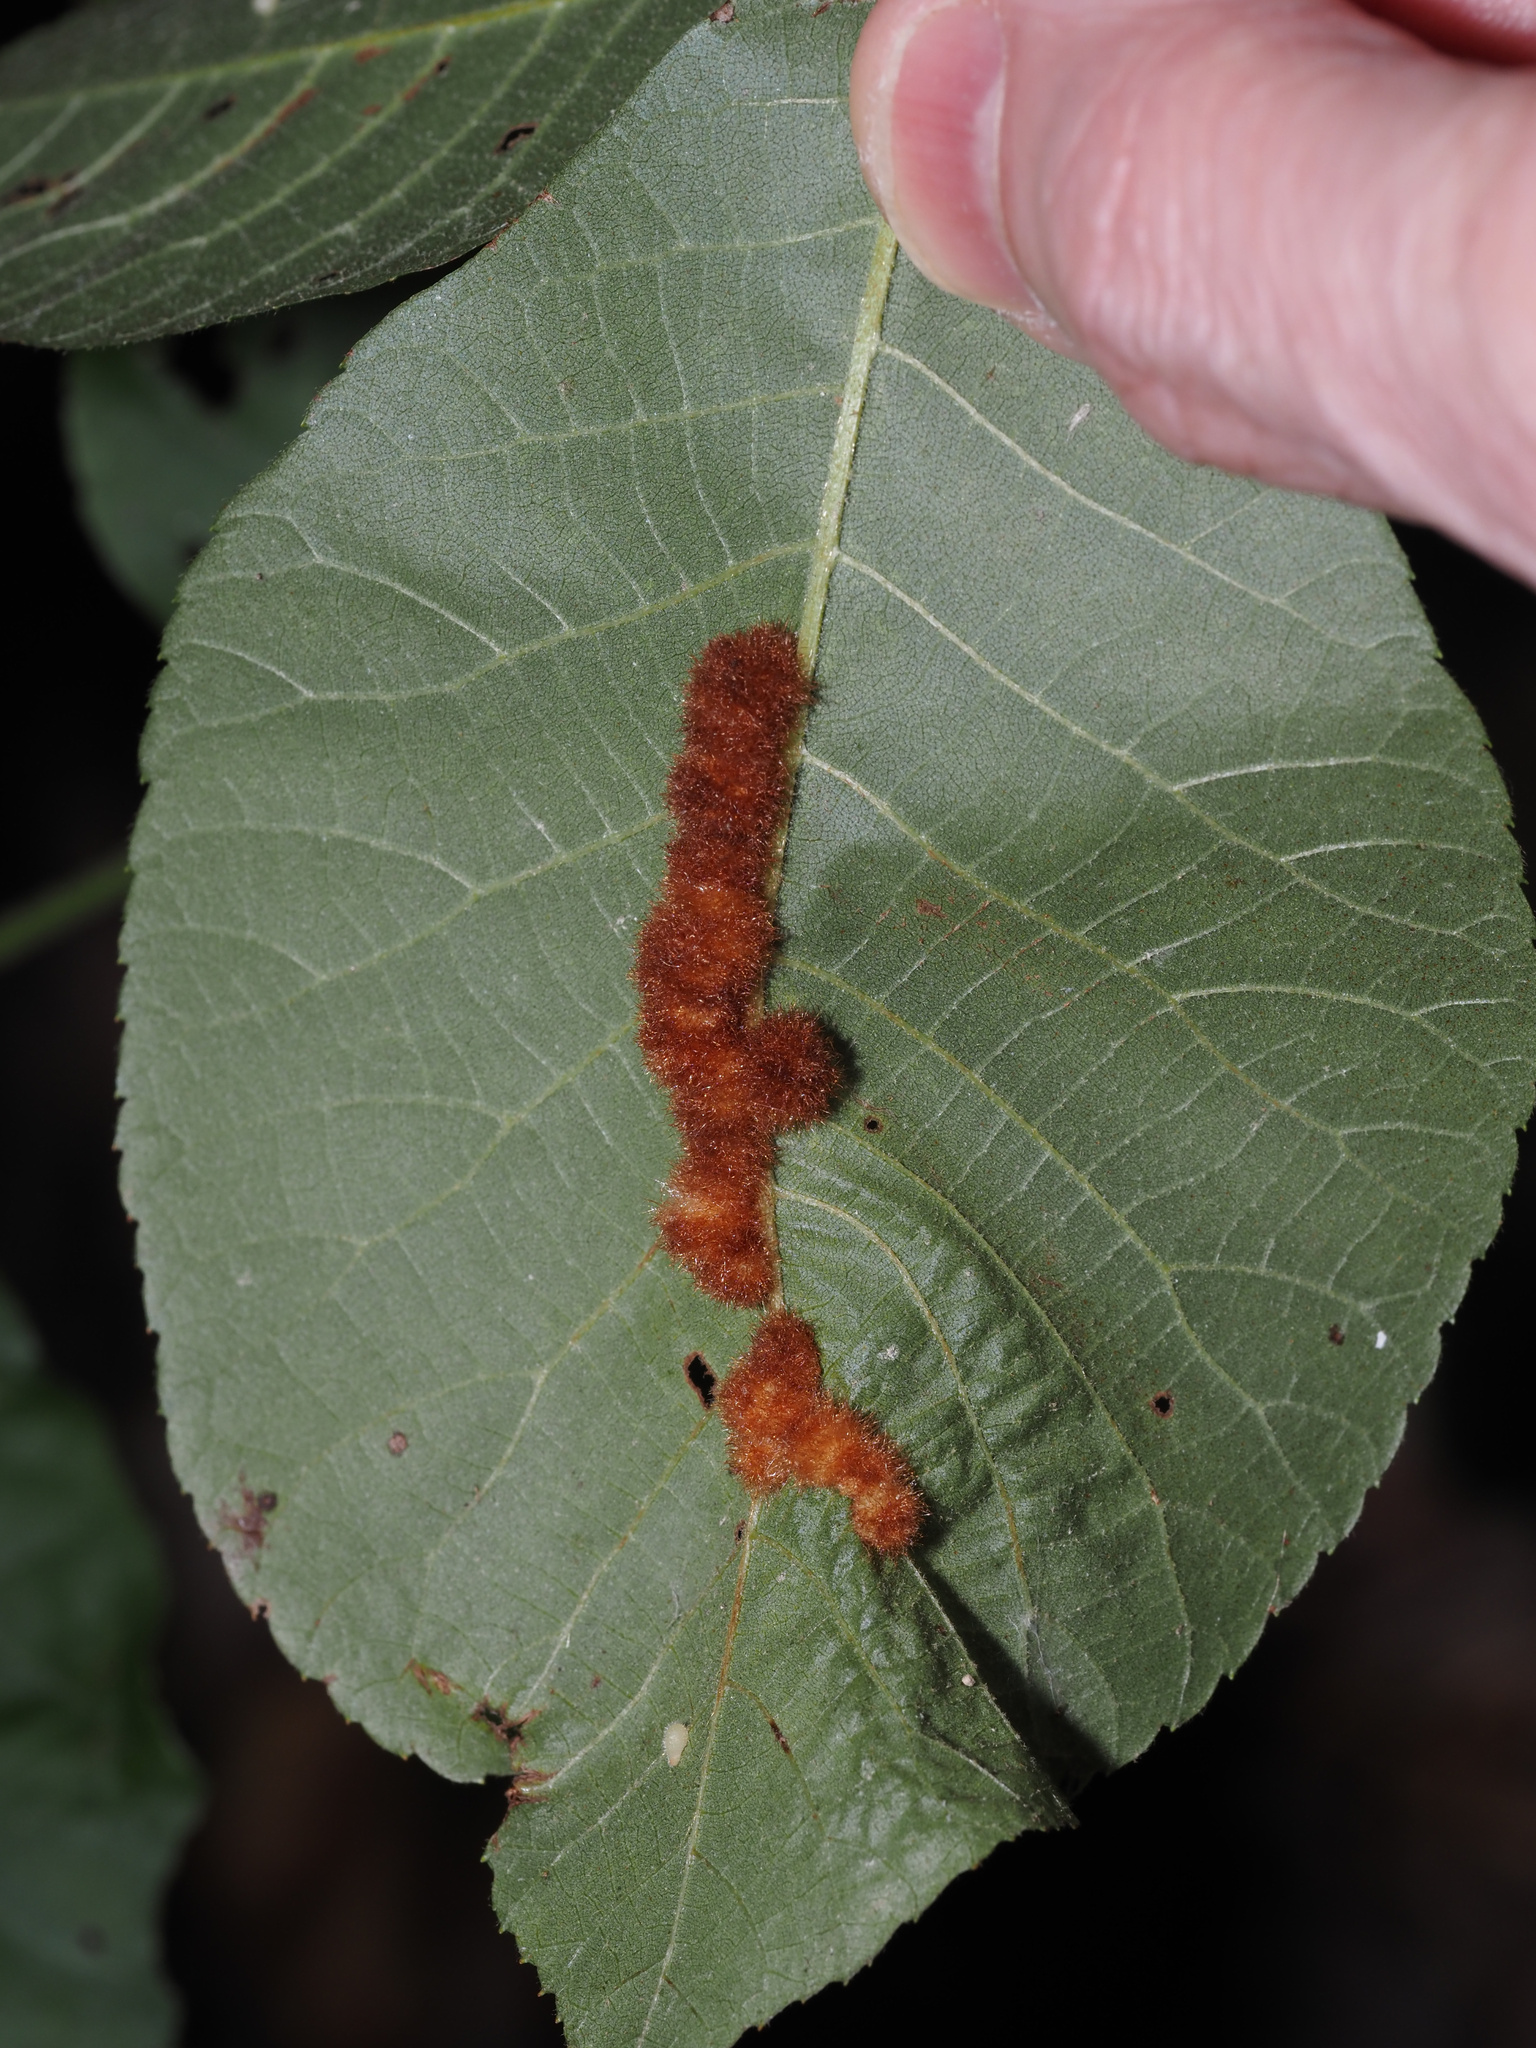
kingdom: Animalia
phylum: Arthropoda
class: Insecta
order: Diptera
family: Cecidomyiidae
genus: Caryomyia
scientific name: Caryomyia aggregata
